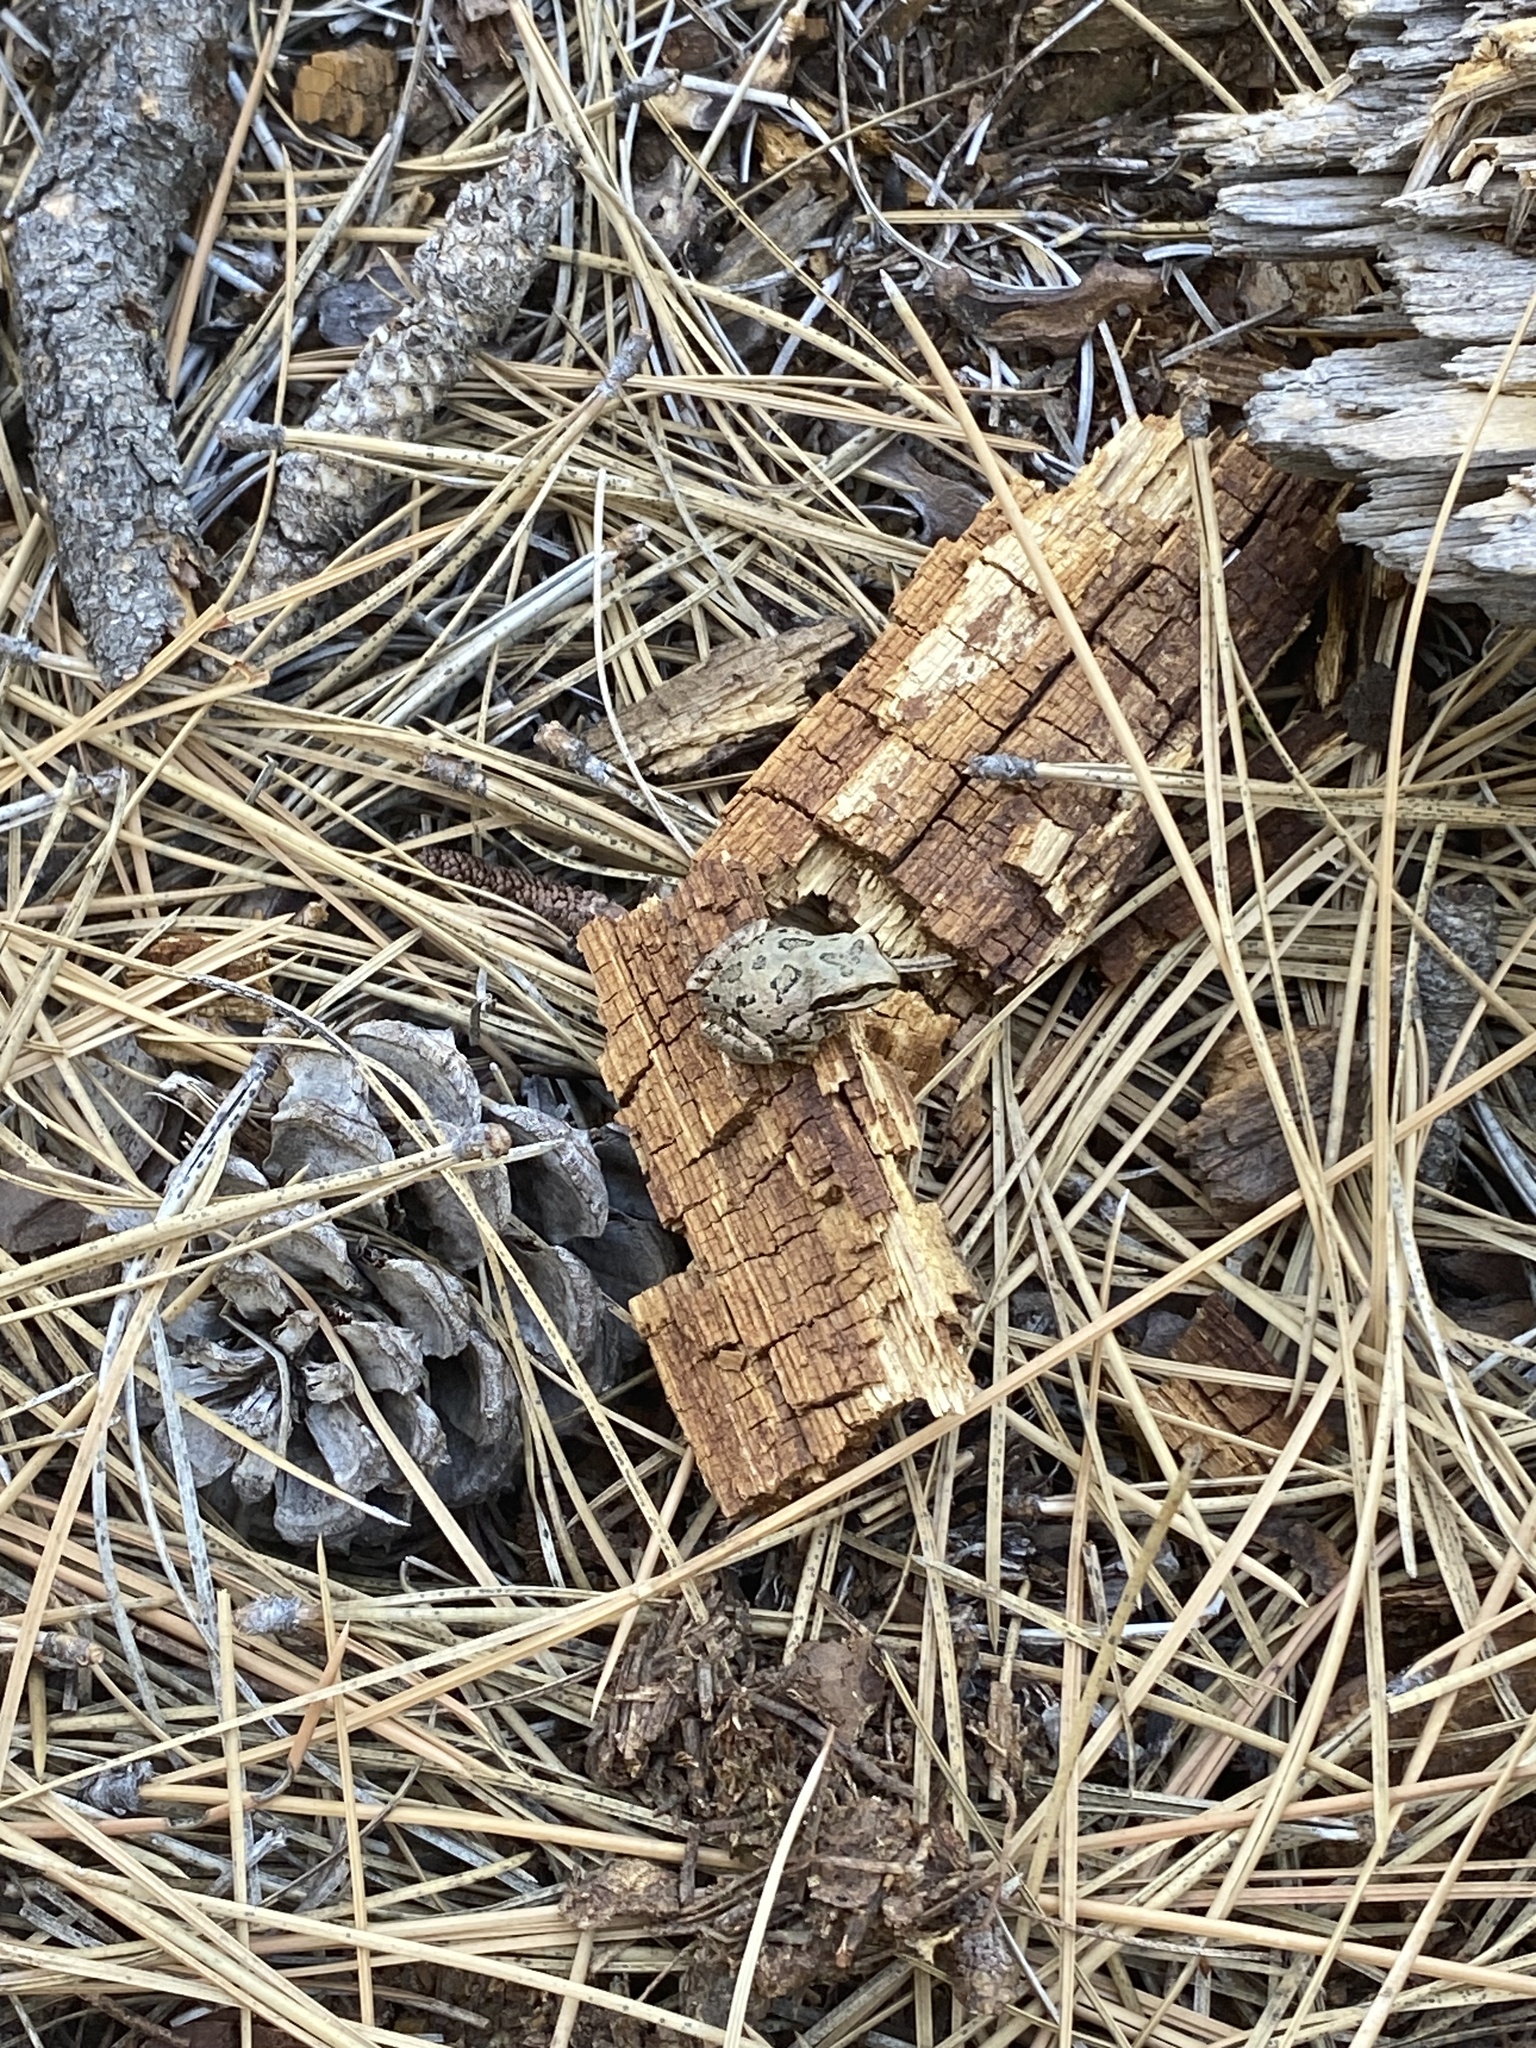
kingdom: Animalia
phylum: Chordata
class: Amphibia
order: Anura
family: Hylidae
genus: Pseudacris
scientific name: Pseudacris regilla
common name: Pacific chorus frog
